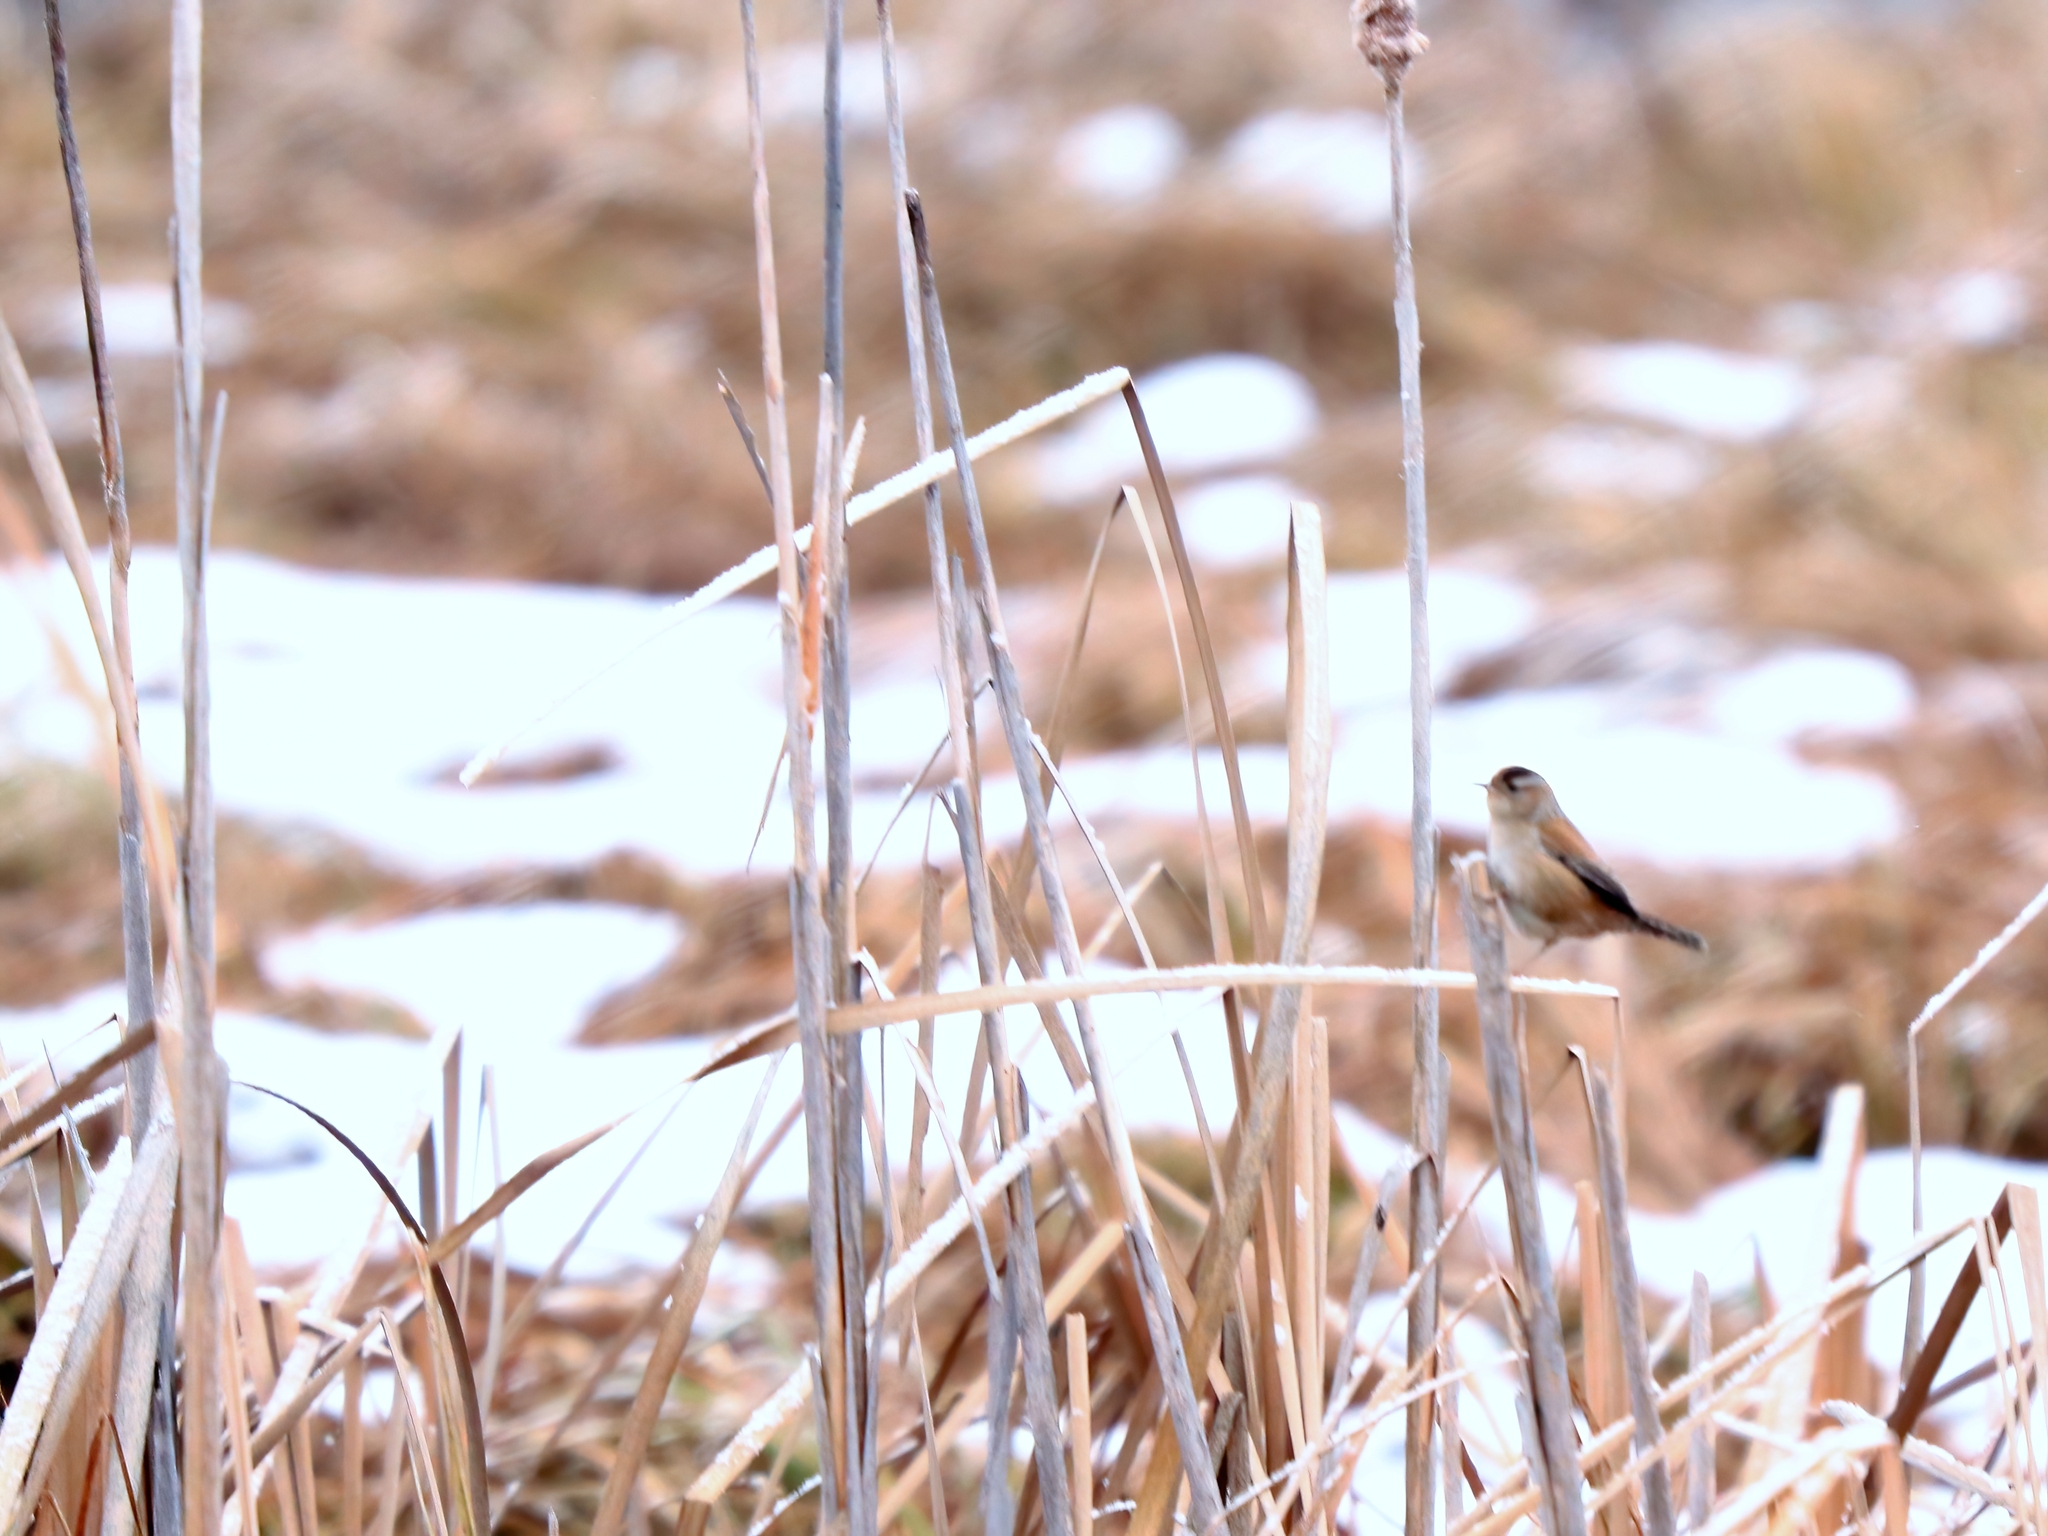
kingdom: Animalia
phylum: Chordata
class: Aves
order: Passeriformes
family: Troglodytidae
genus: Cistothorus
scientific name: Cistothorus palustris
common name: Marsh wren
